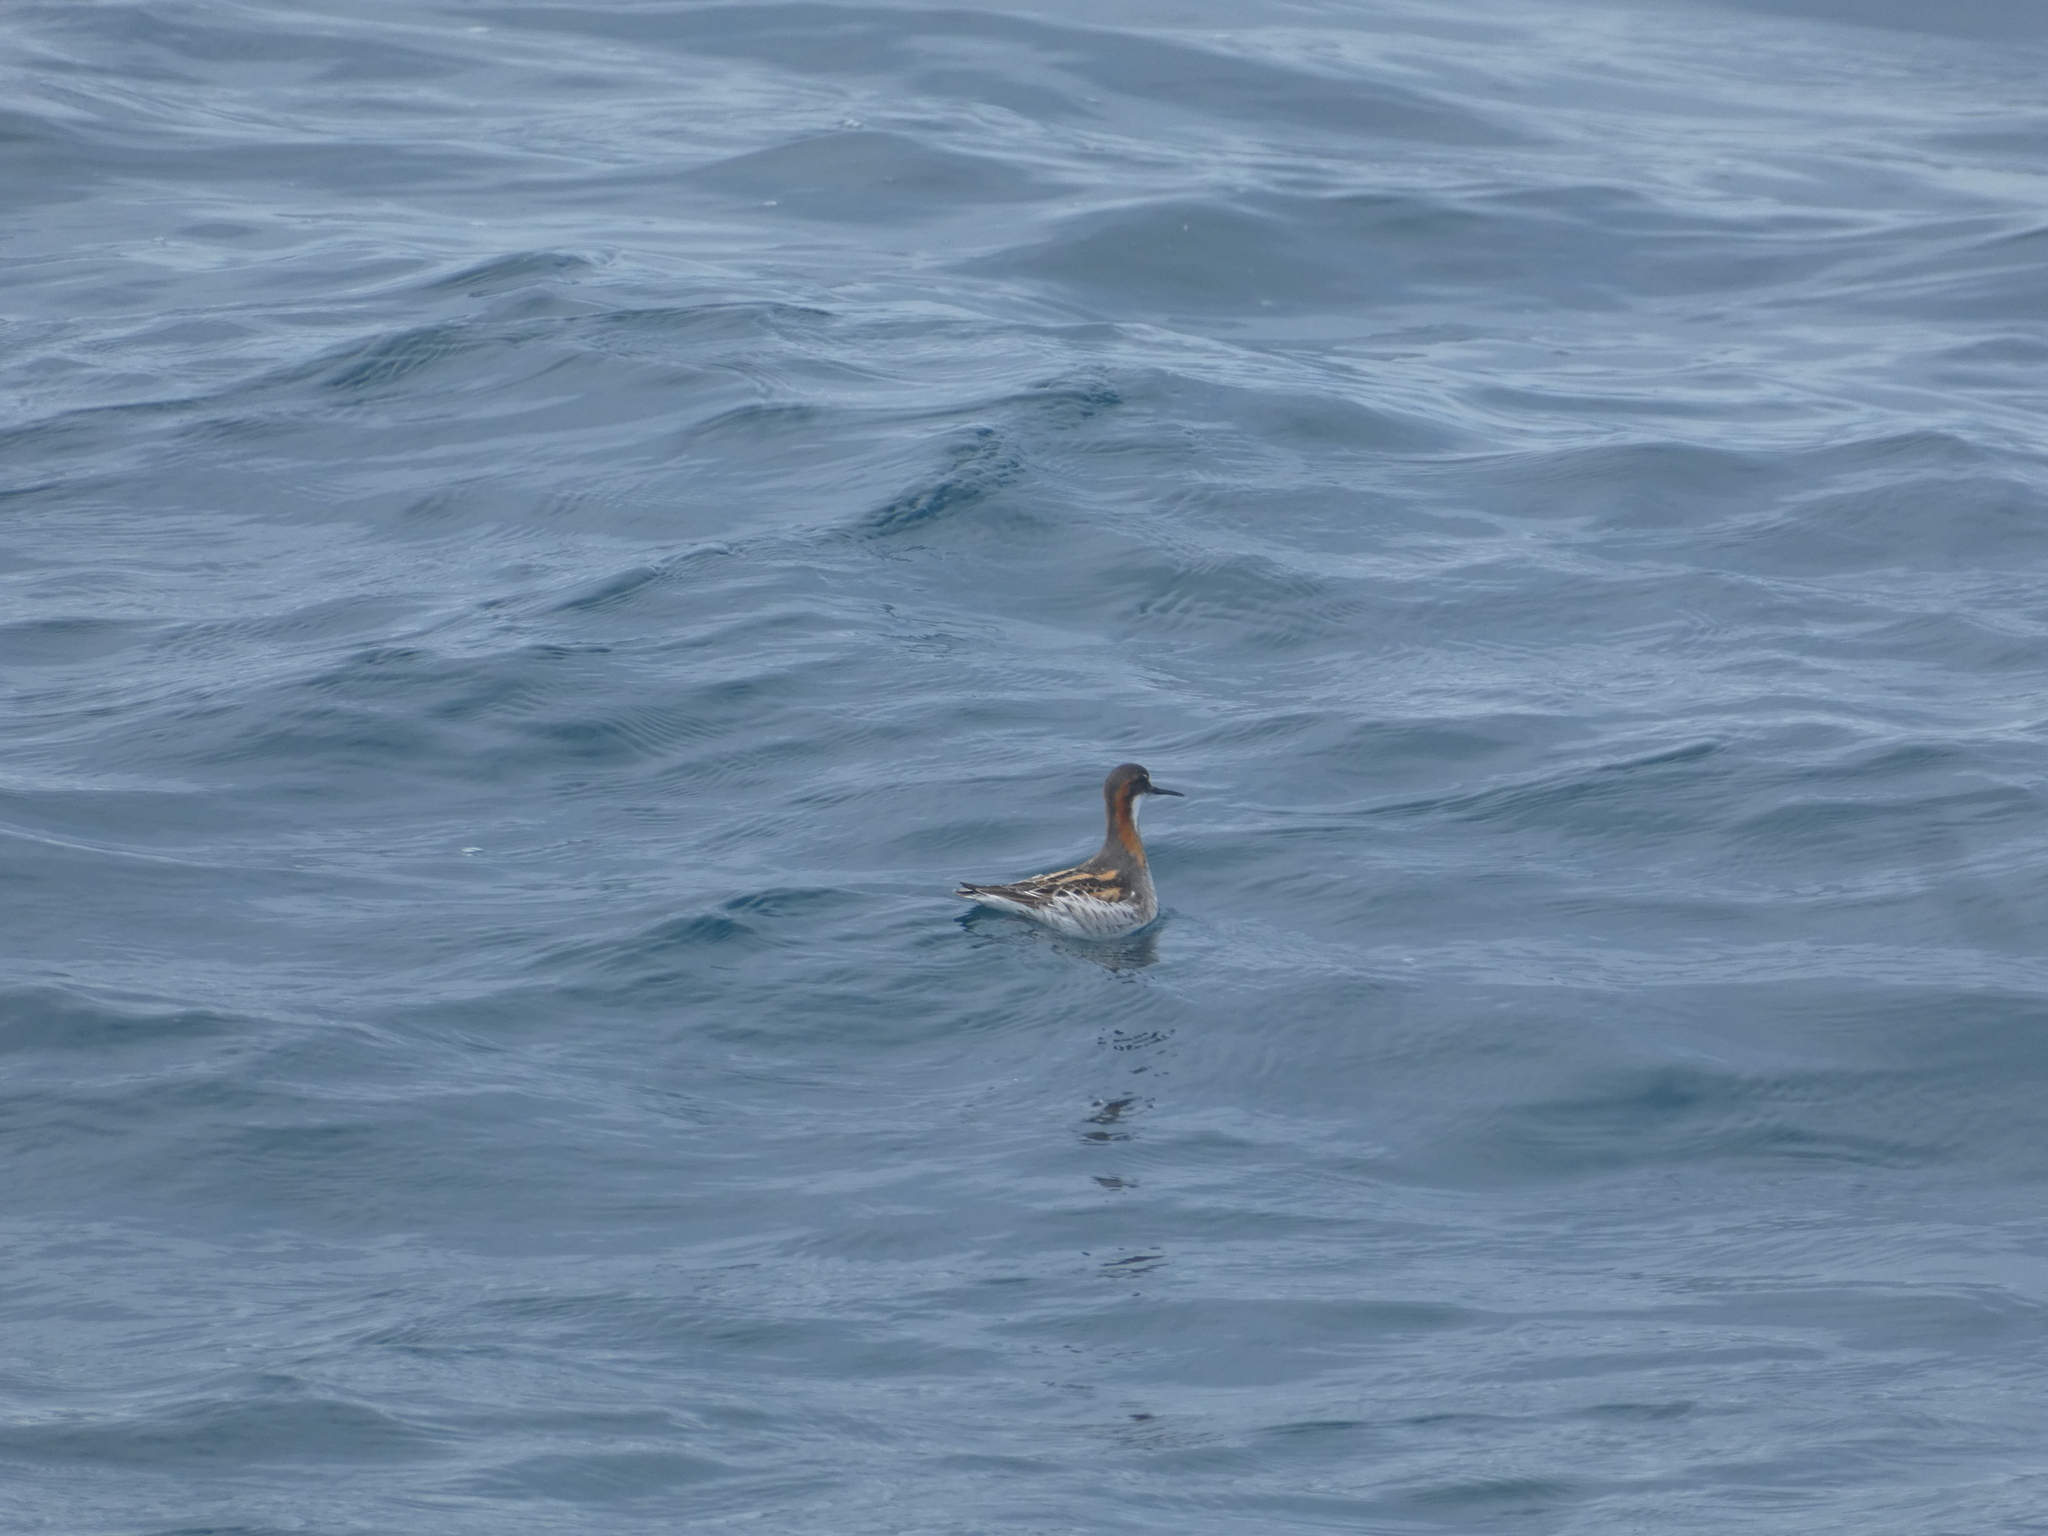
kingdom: Animalia
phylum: Chordata
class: Aves
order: Charadriiformes
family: Scolopacidae
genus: Phalaropus
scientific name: Phalaropus lobatus
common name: Red-necked phalarope
